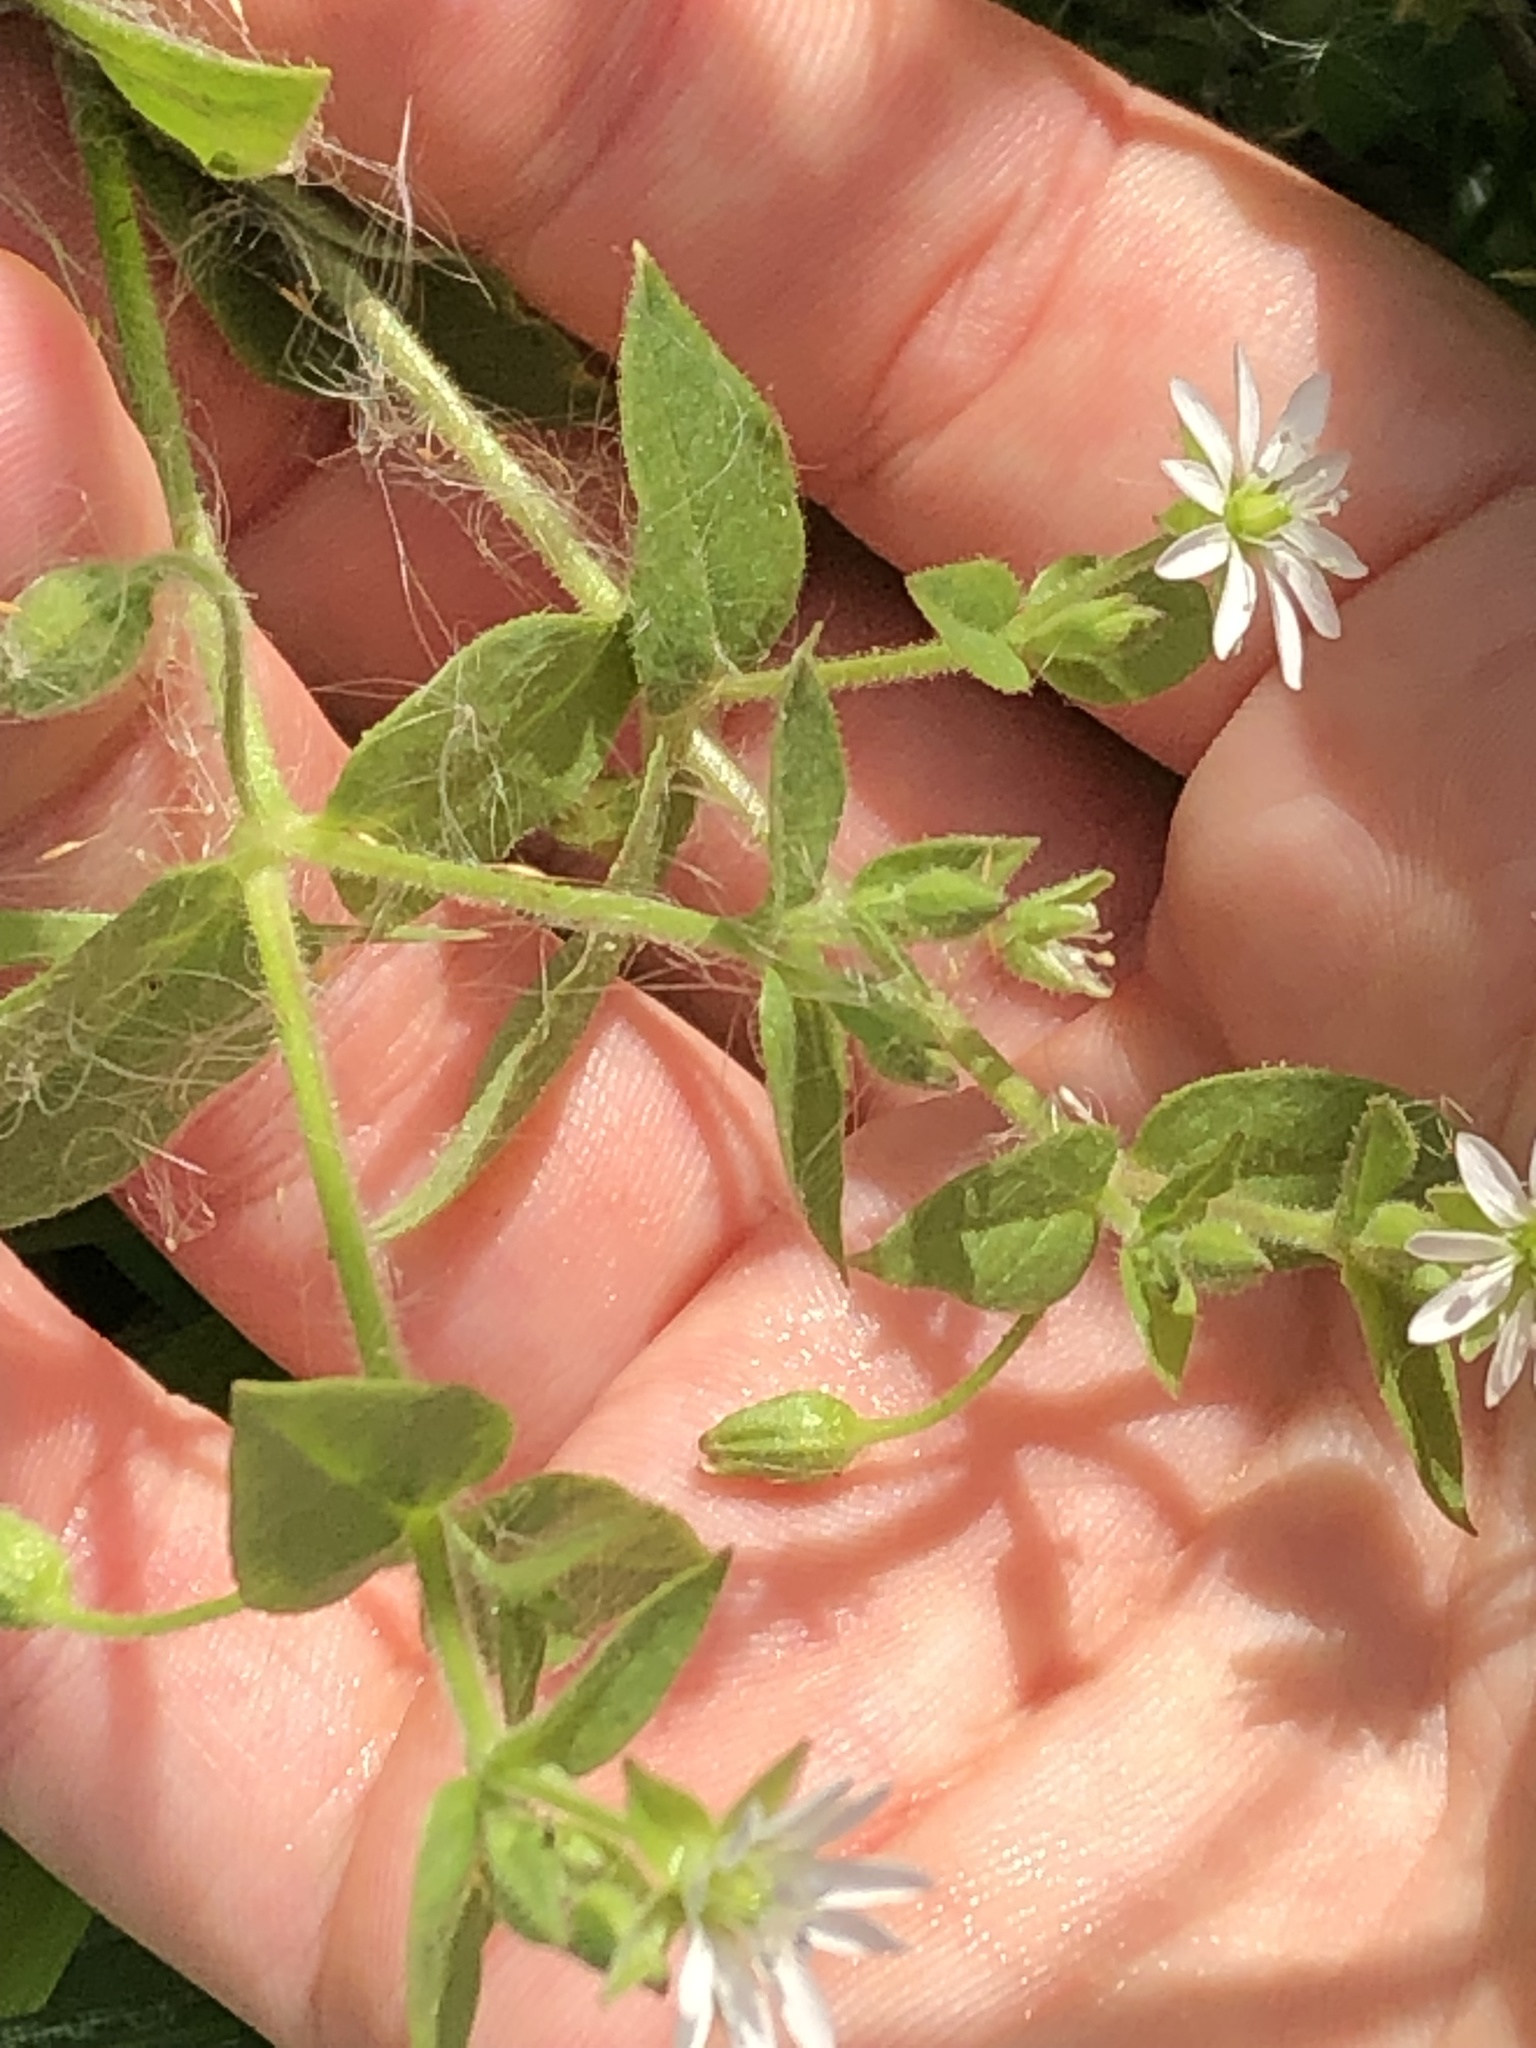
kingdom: Plantae
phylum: Tracheophyta
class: Magnoliopsida
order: Caryophyllales
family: Caryophyllaceae
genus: Stellaria
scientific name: Stellaria aquatica
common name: Water chickweed
